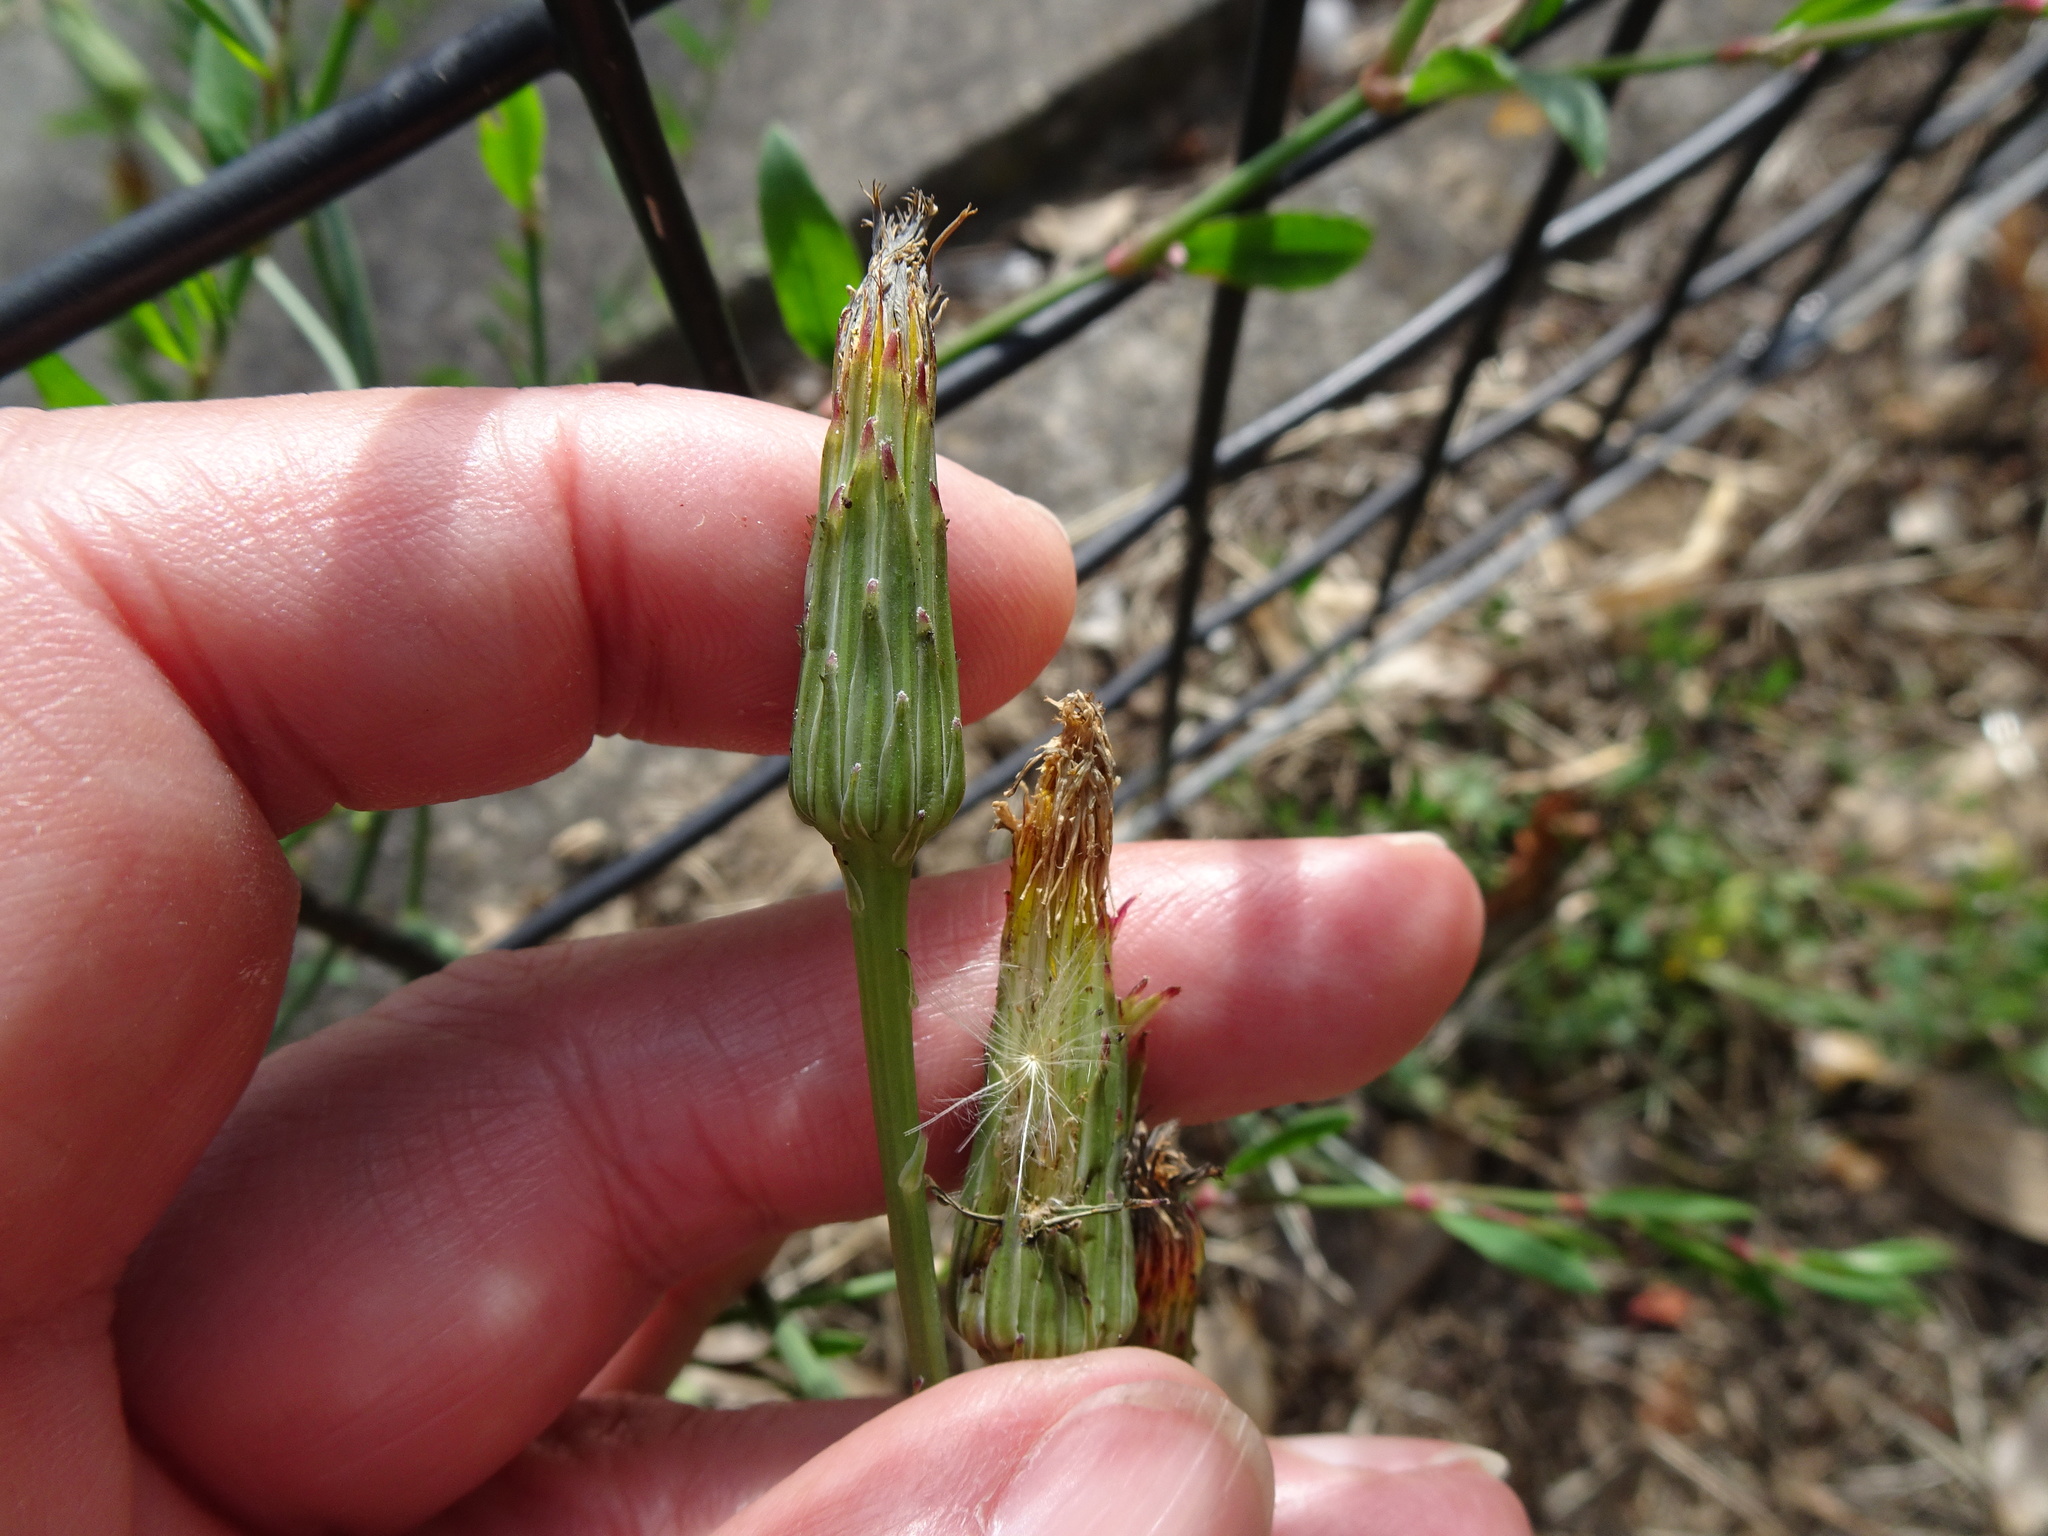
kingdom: Plantae
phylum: Tracheophyta
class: Magnoliopsida
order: Asterales
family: Asteraceae
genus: Hypochaeris
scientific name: Hypochaeris radicata
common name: Flatweed
